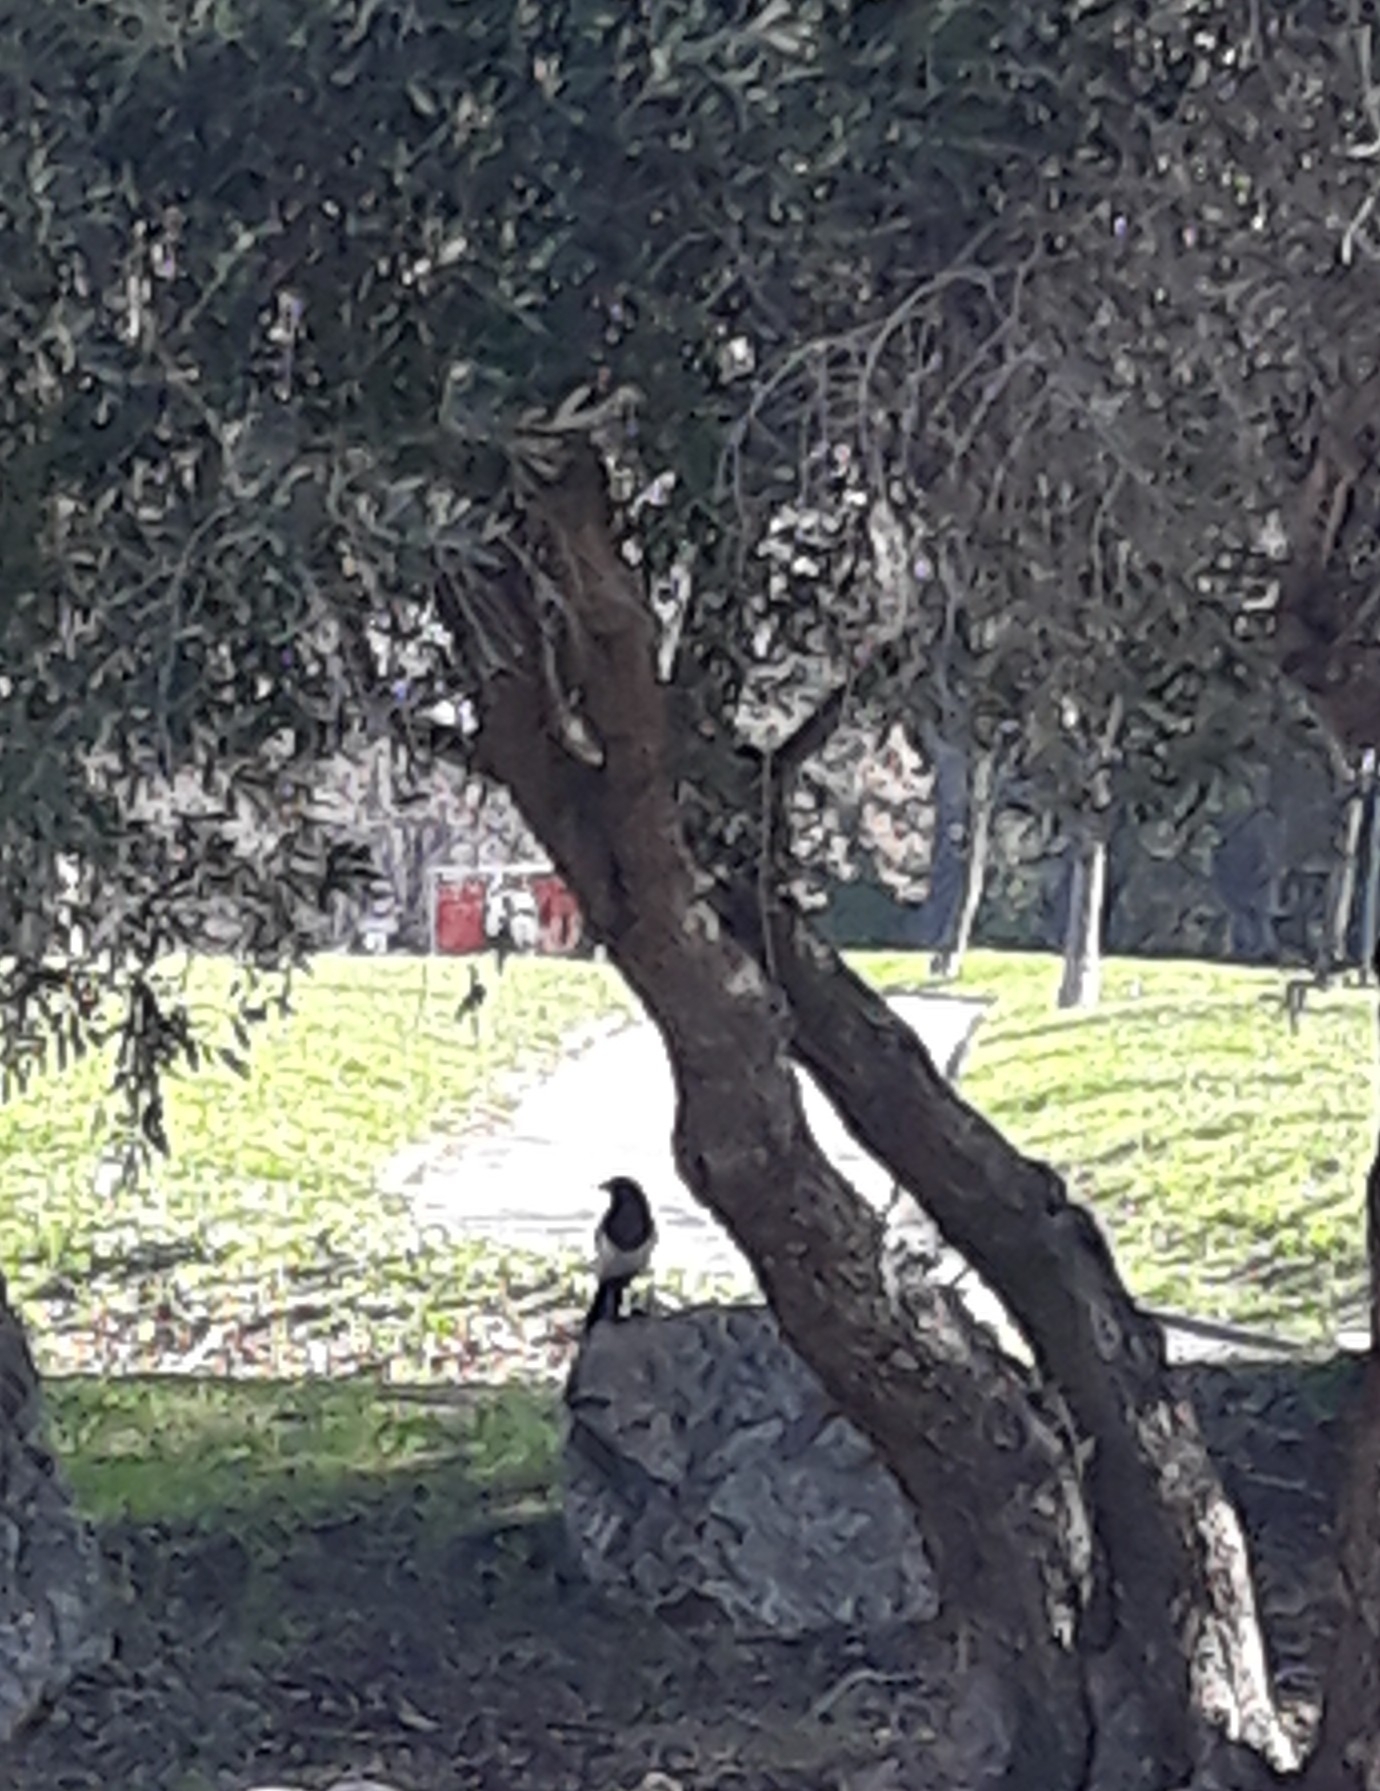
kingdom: Animalia
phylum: Chordata
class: Aves
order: Passeriformes
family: Corvidae
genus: Pica
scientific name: Pica pica
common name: Eurasian magpie
